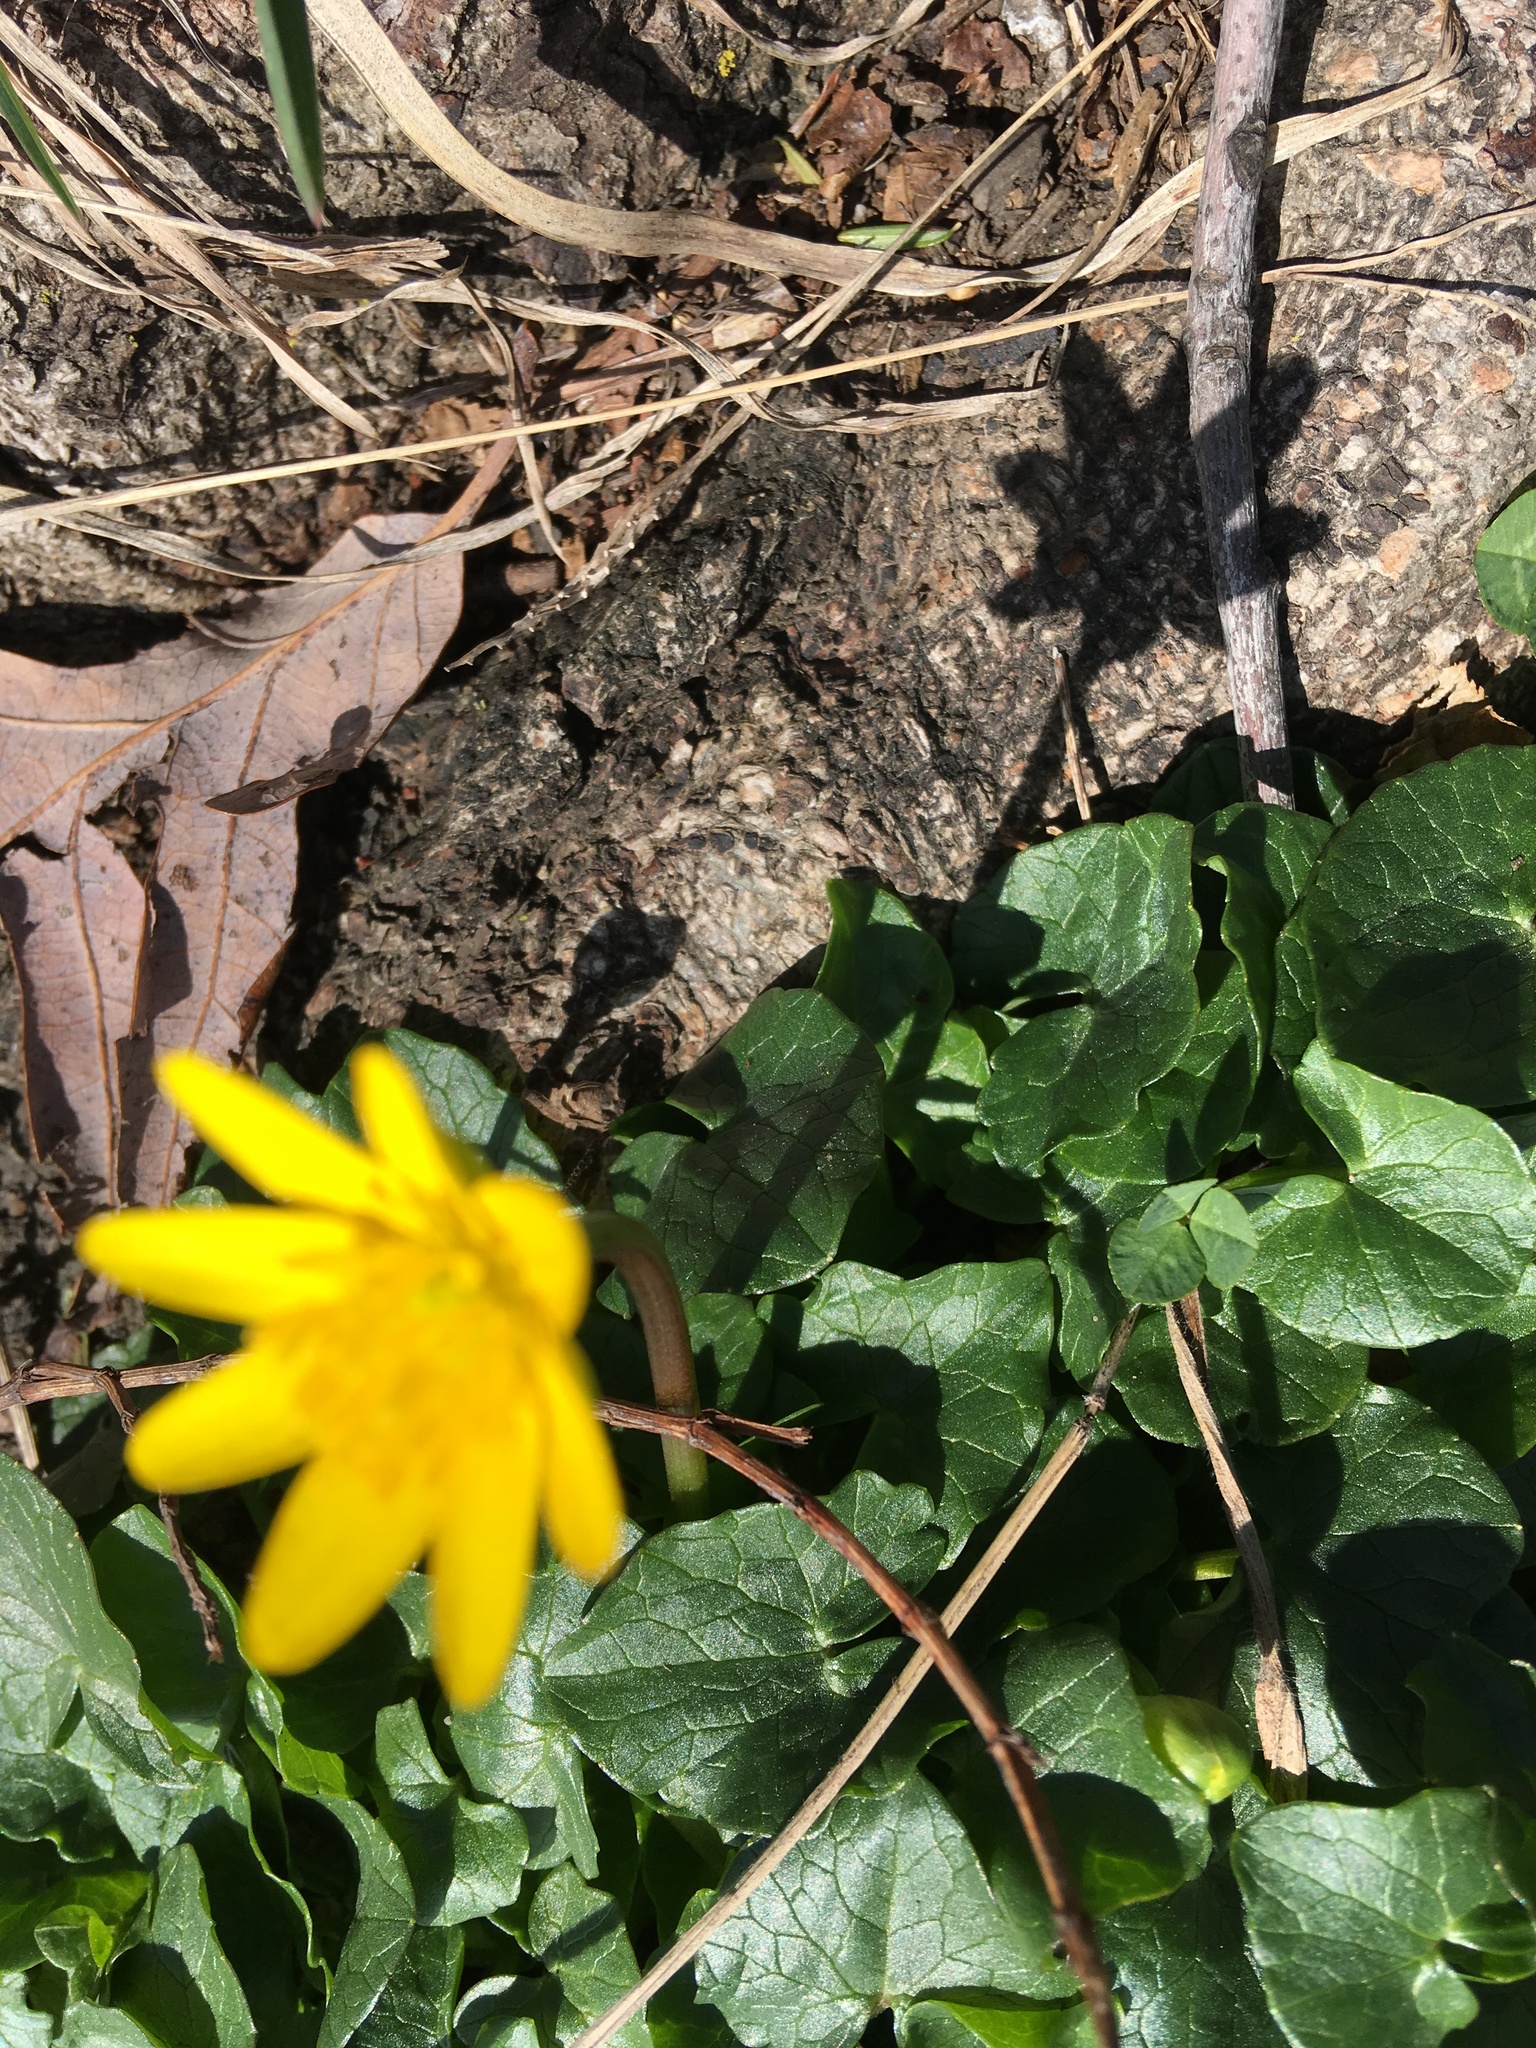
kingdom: Plantae
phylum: Tracheophyta
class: Magnoliopsida
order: Ranunculales
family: Ranunculaceae
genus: Ficaria
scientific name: Ficaria verna
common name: Lesser celandine
